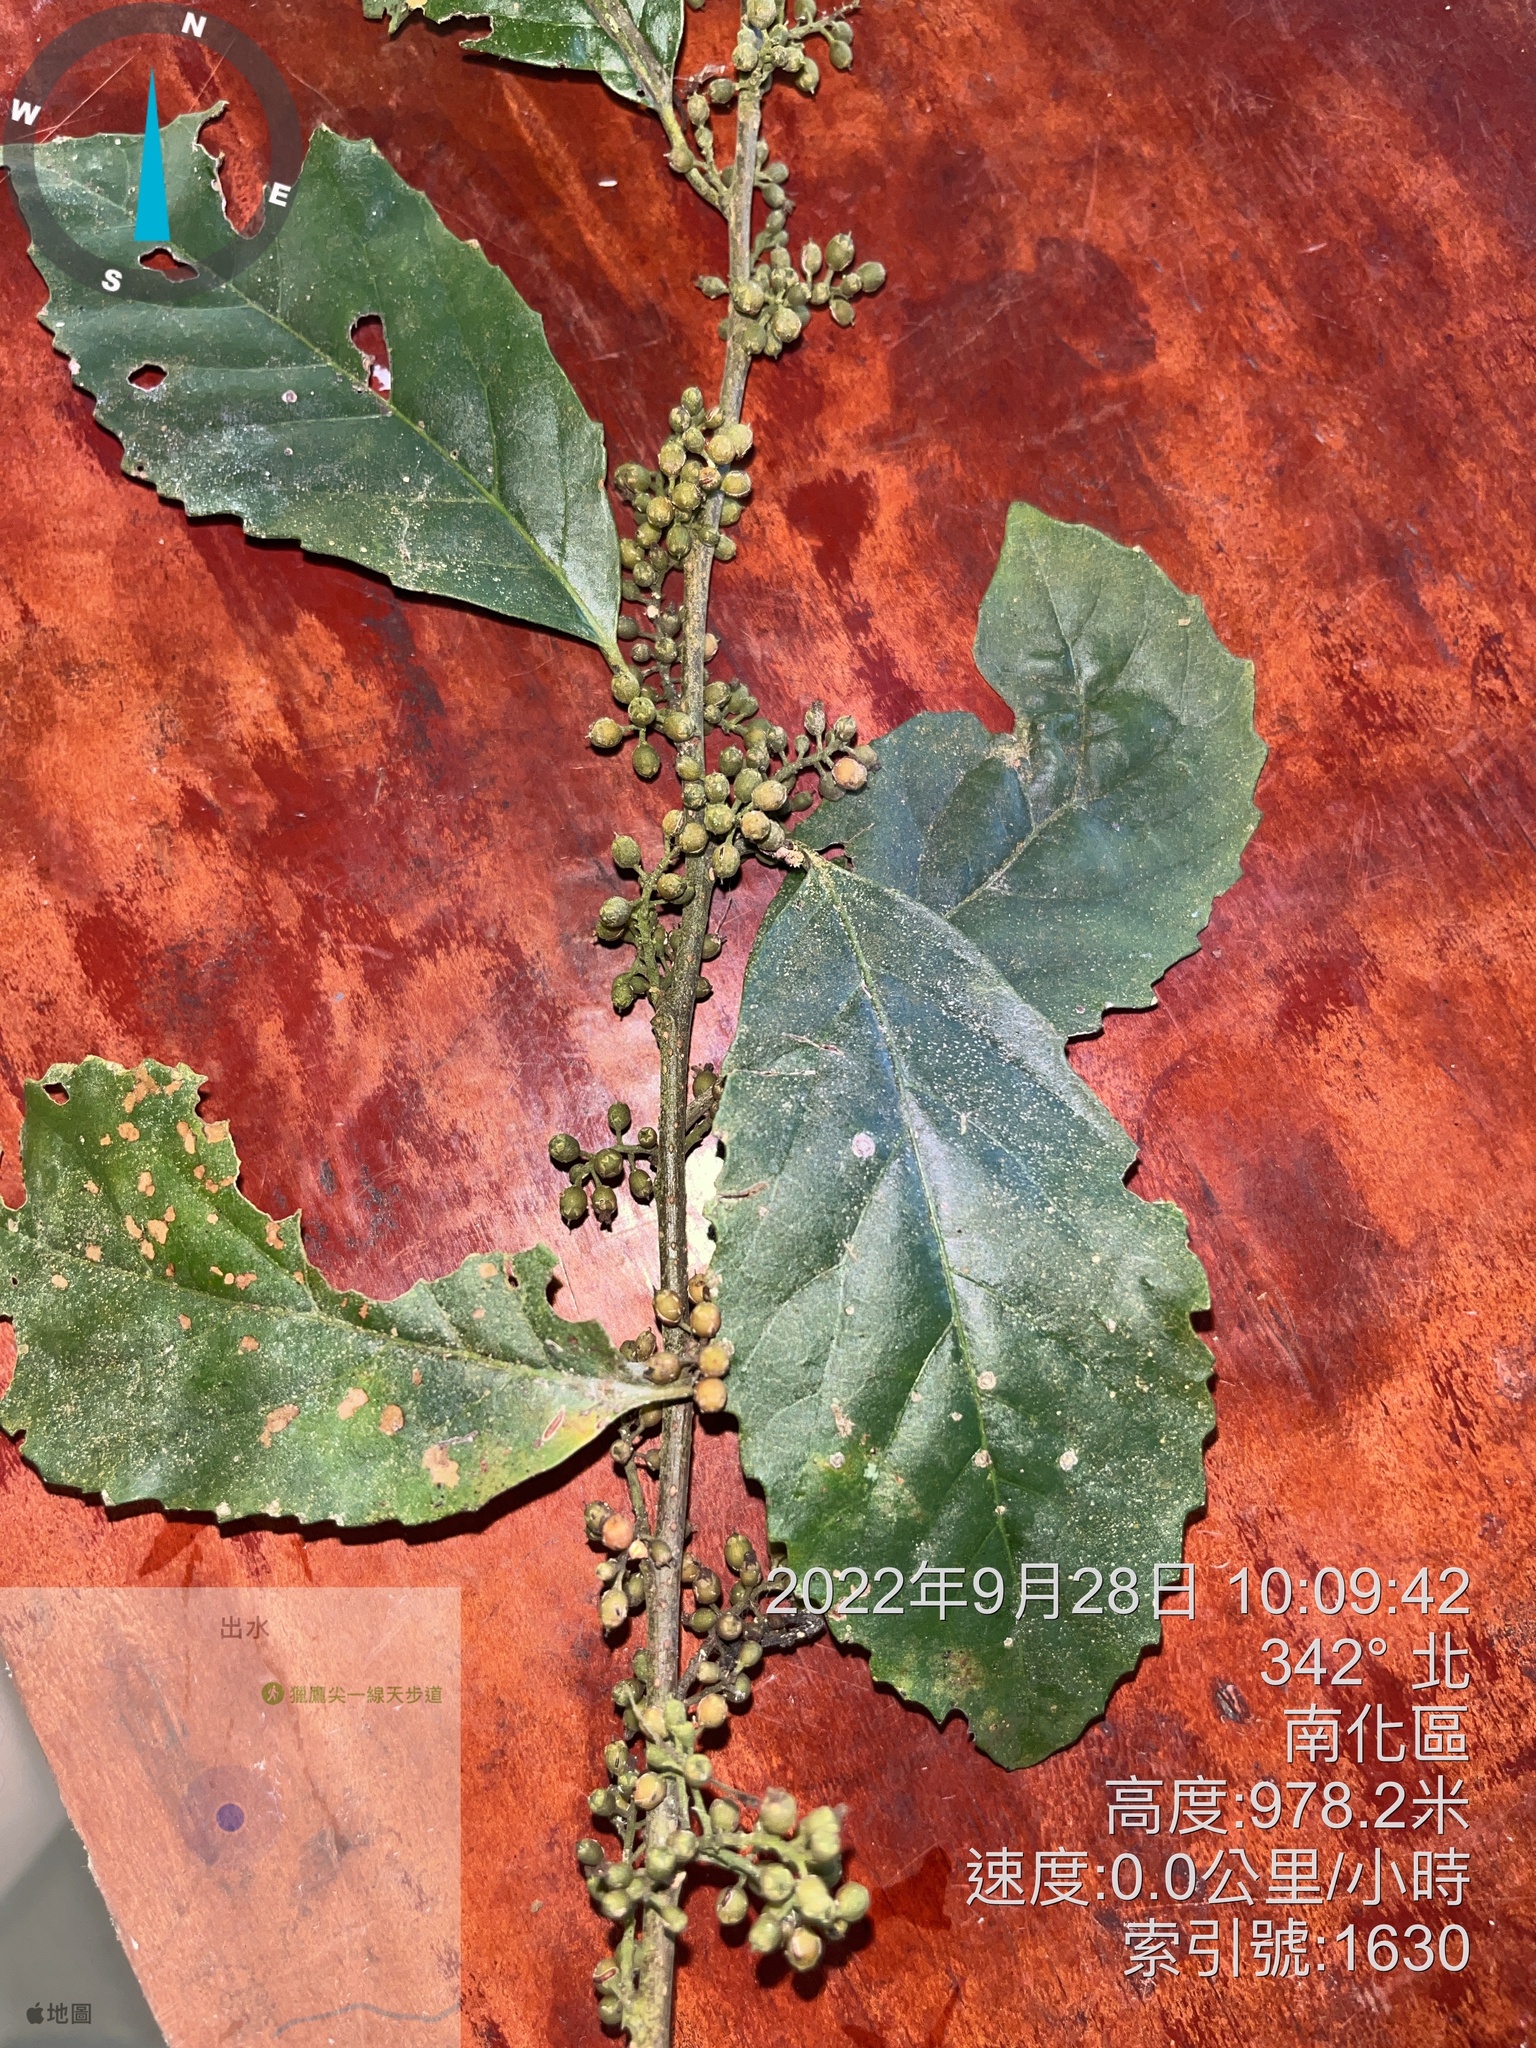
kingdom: Plantae
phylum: Tracheophyta
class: Magnoliopsida
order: Ericales
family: Primulaceae
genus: Maesa
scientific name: Maesa perlaria
